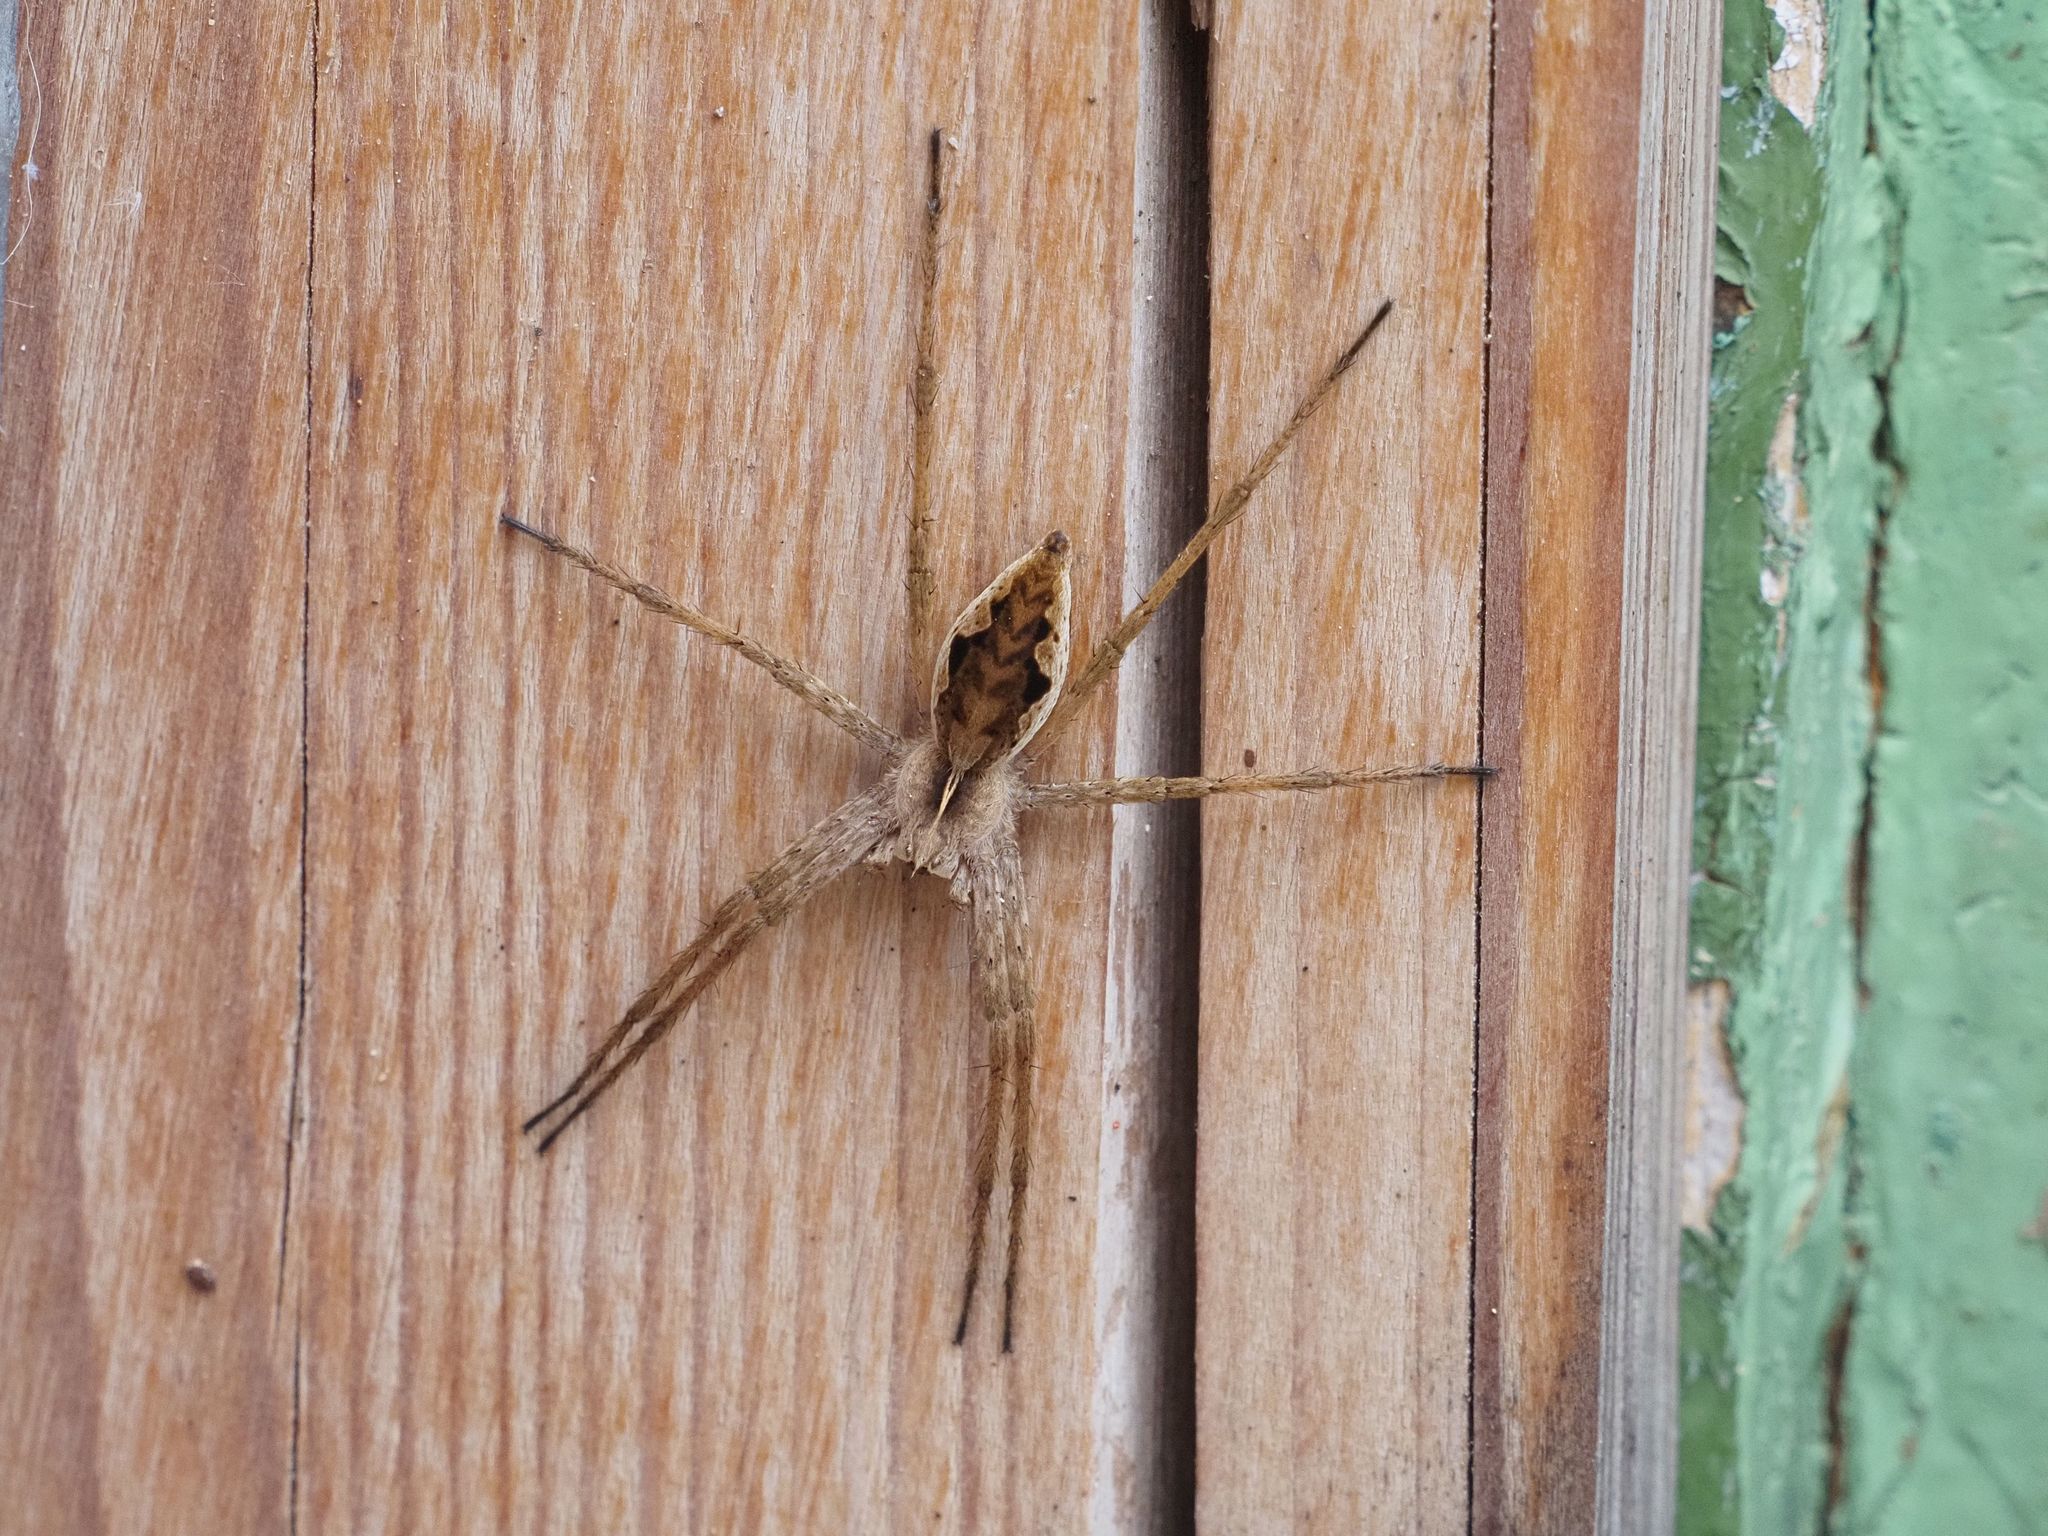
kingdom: Animalia
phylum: Arthropoda
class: Arachnida
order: Araneae
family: Pisauridae
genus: Pisaura
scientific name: Pisaura mirabilis
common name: Tent spider
